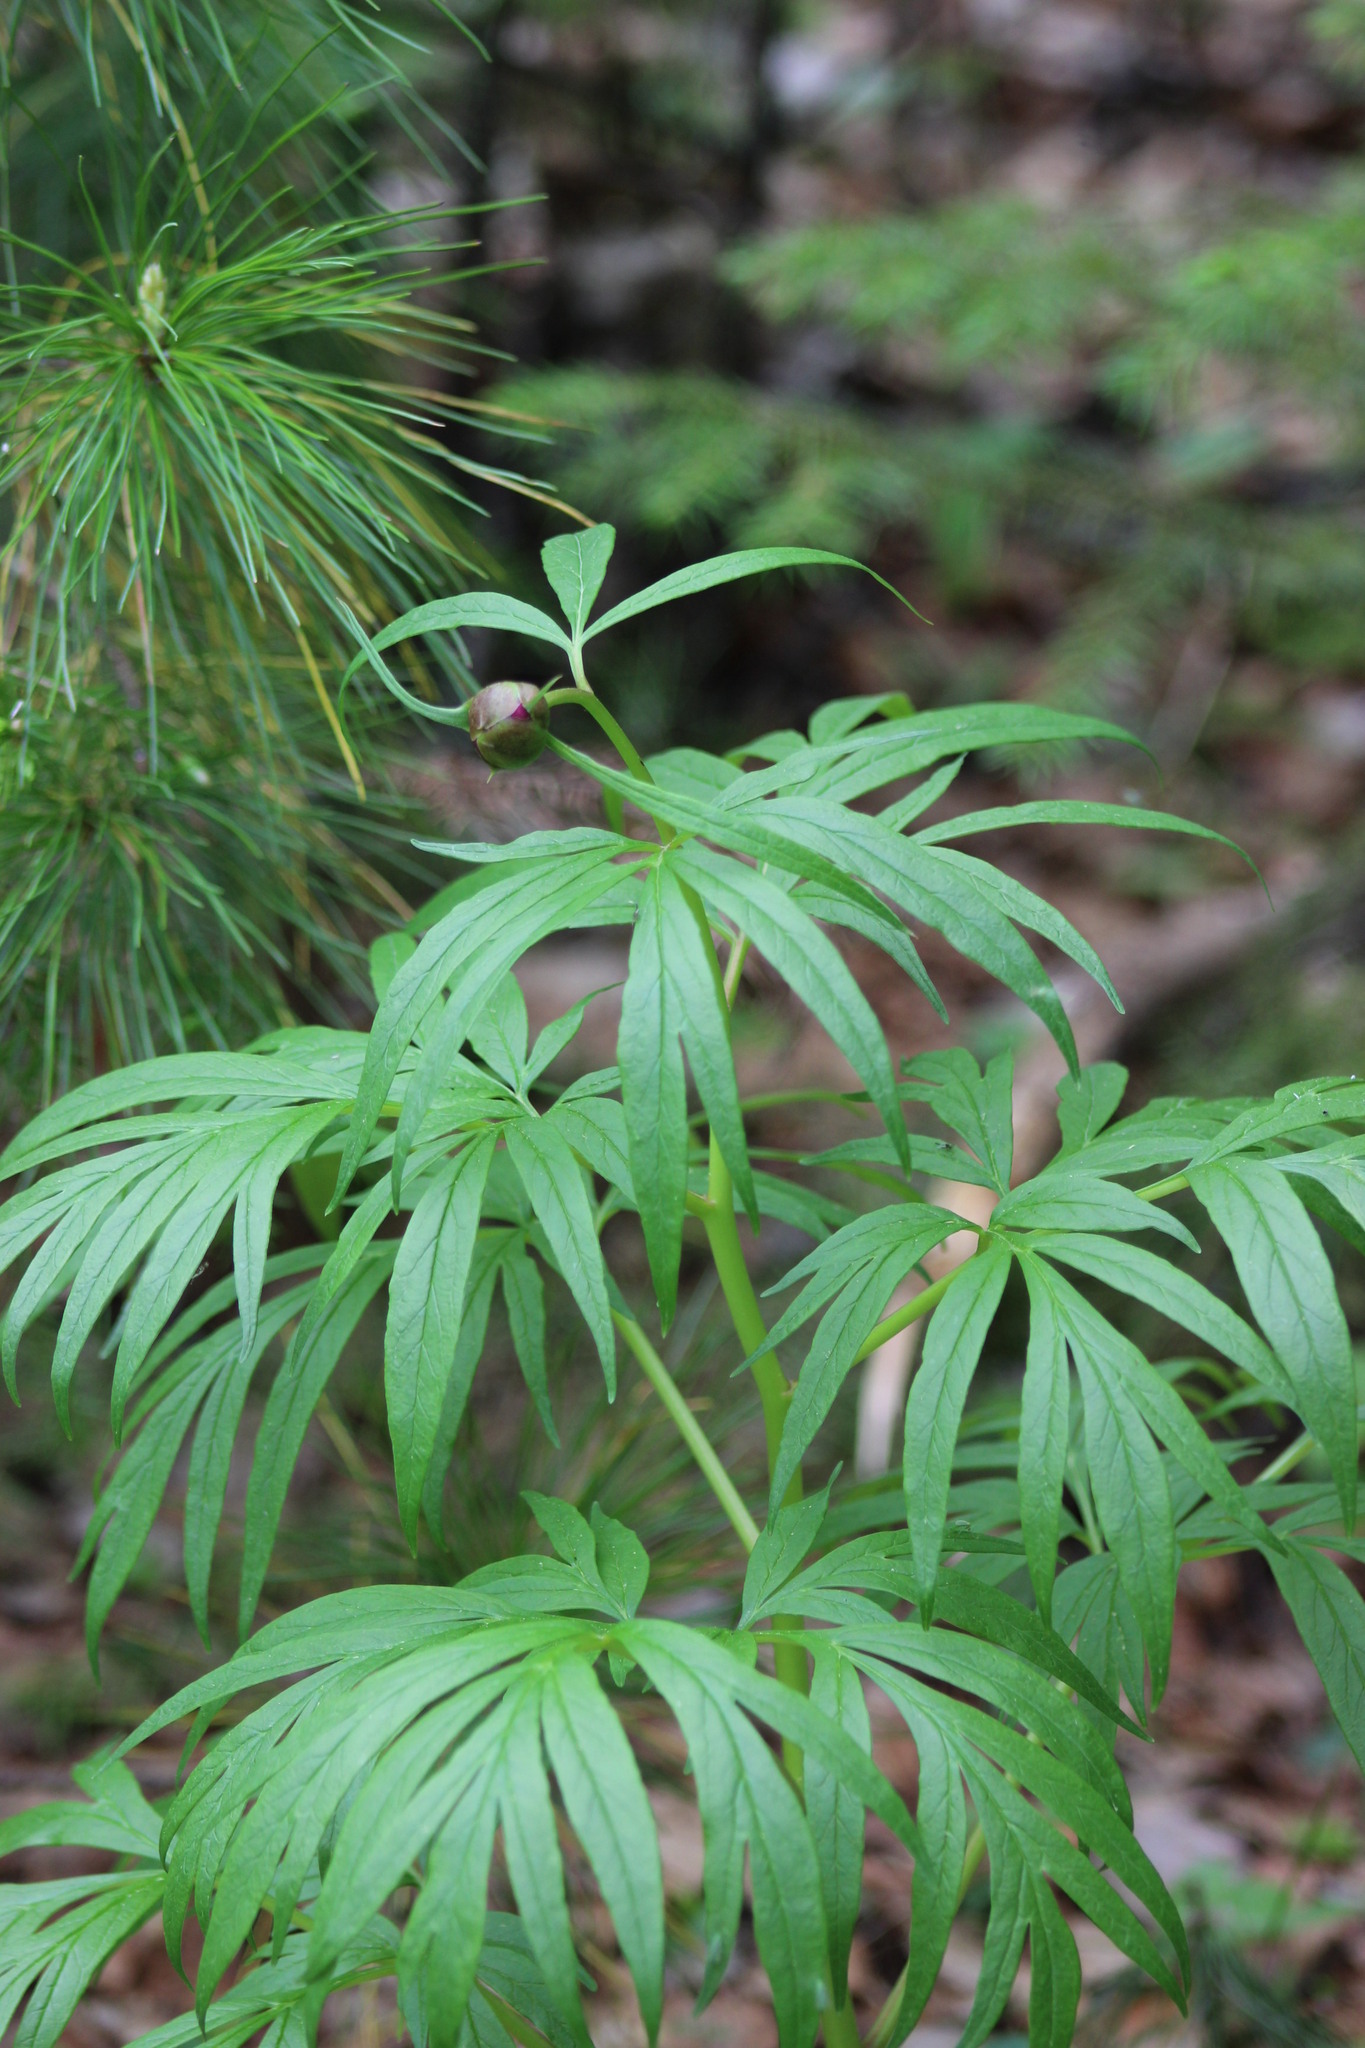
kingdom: Plantae
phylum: Tracheophyta
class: Magnoliopsida
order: Saxifragales
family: Paeoniaceae
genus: Paeonia
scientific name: Paeonia anomala
